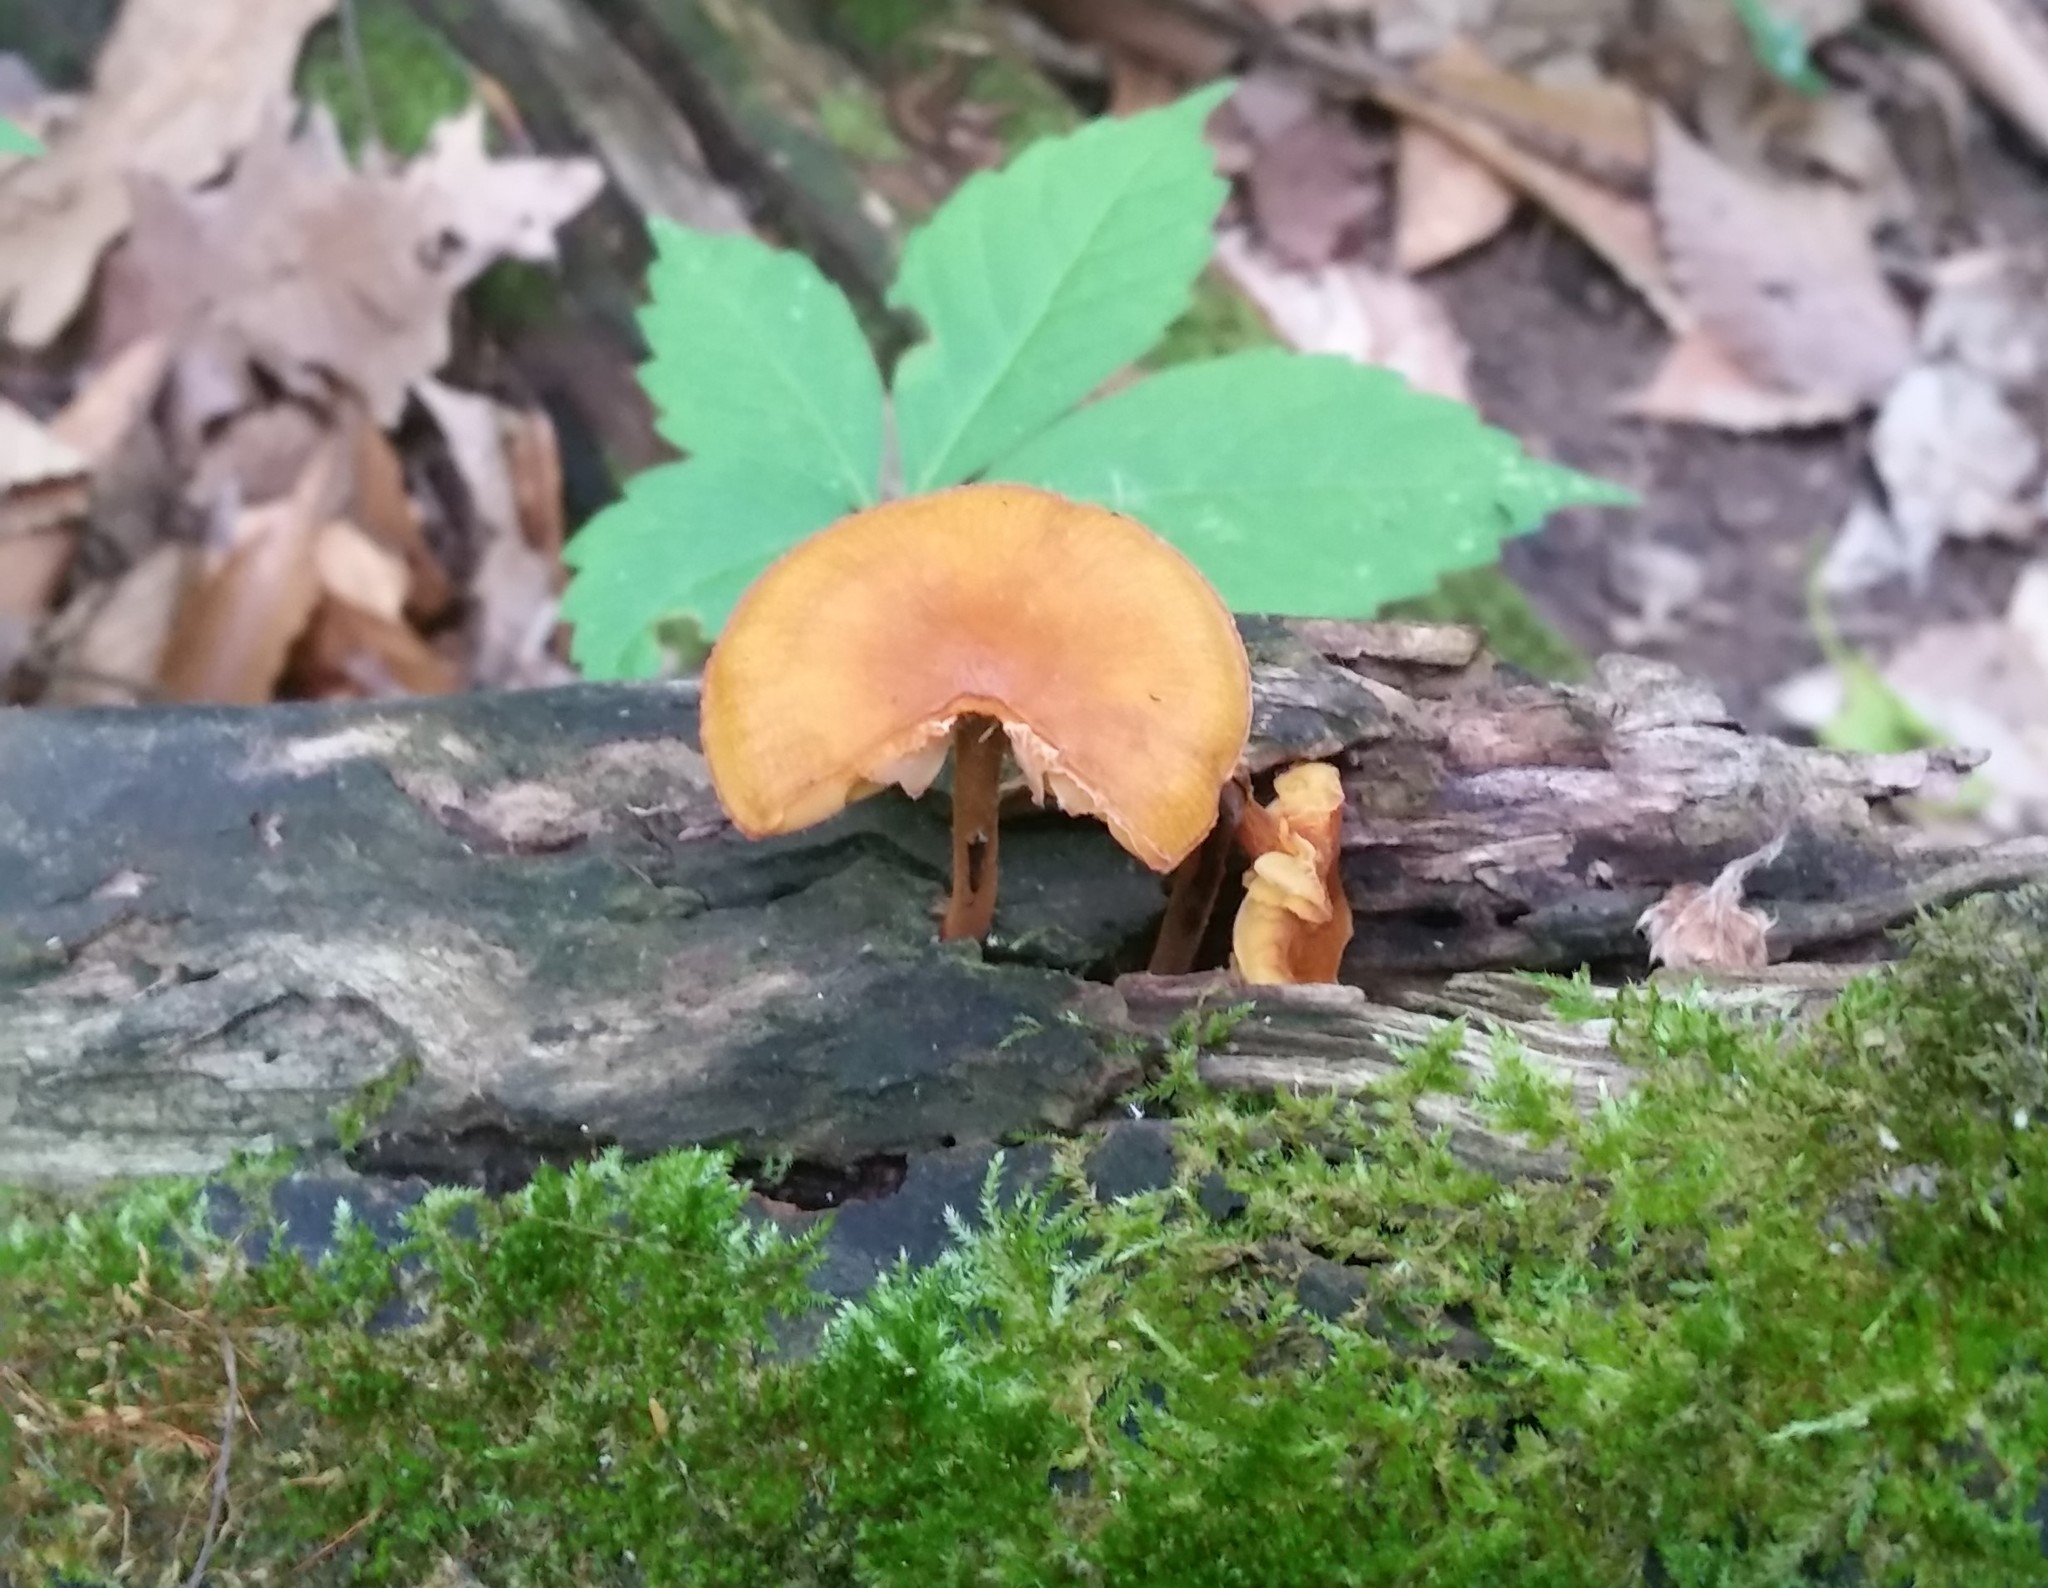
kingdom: Fungi
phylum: Basidiomycota
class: Agaricomycetes
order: Agaricales
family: Mycenaceae
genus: Xeromphalina
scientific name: Xeromphalina tenuipes
